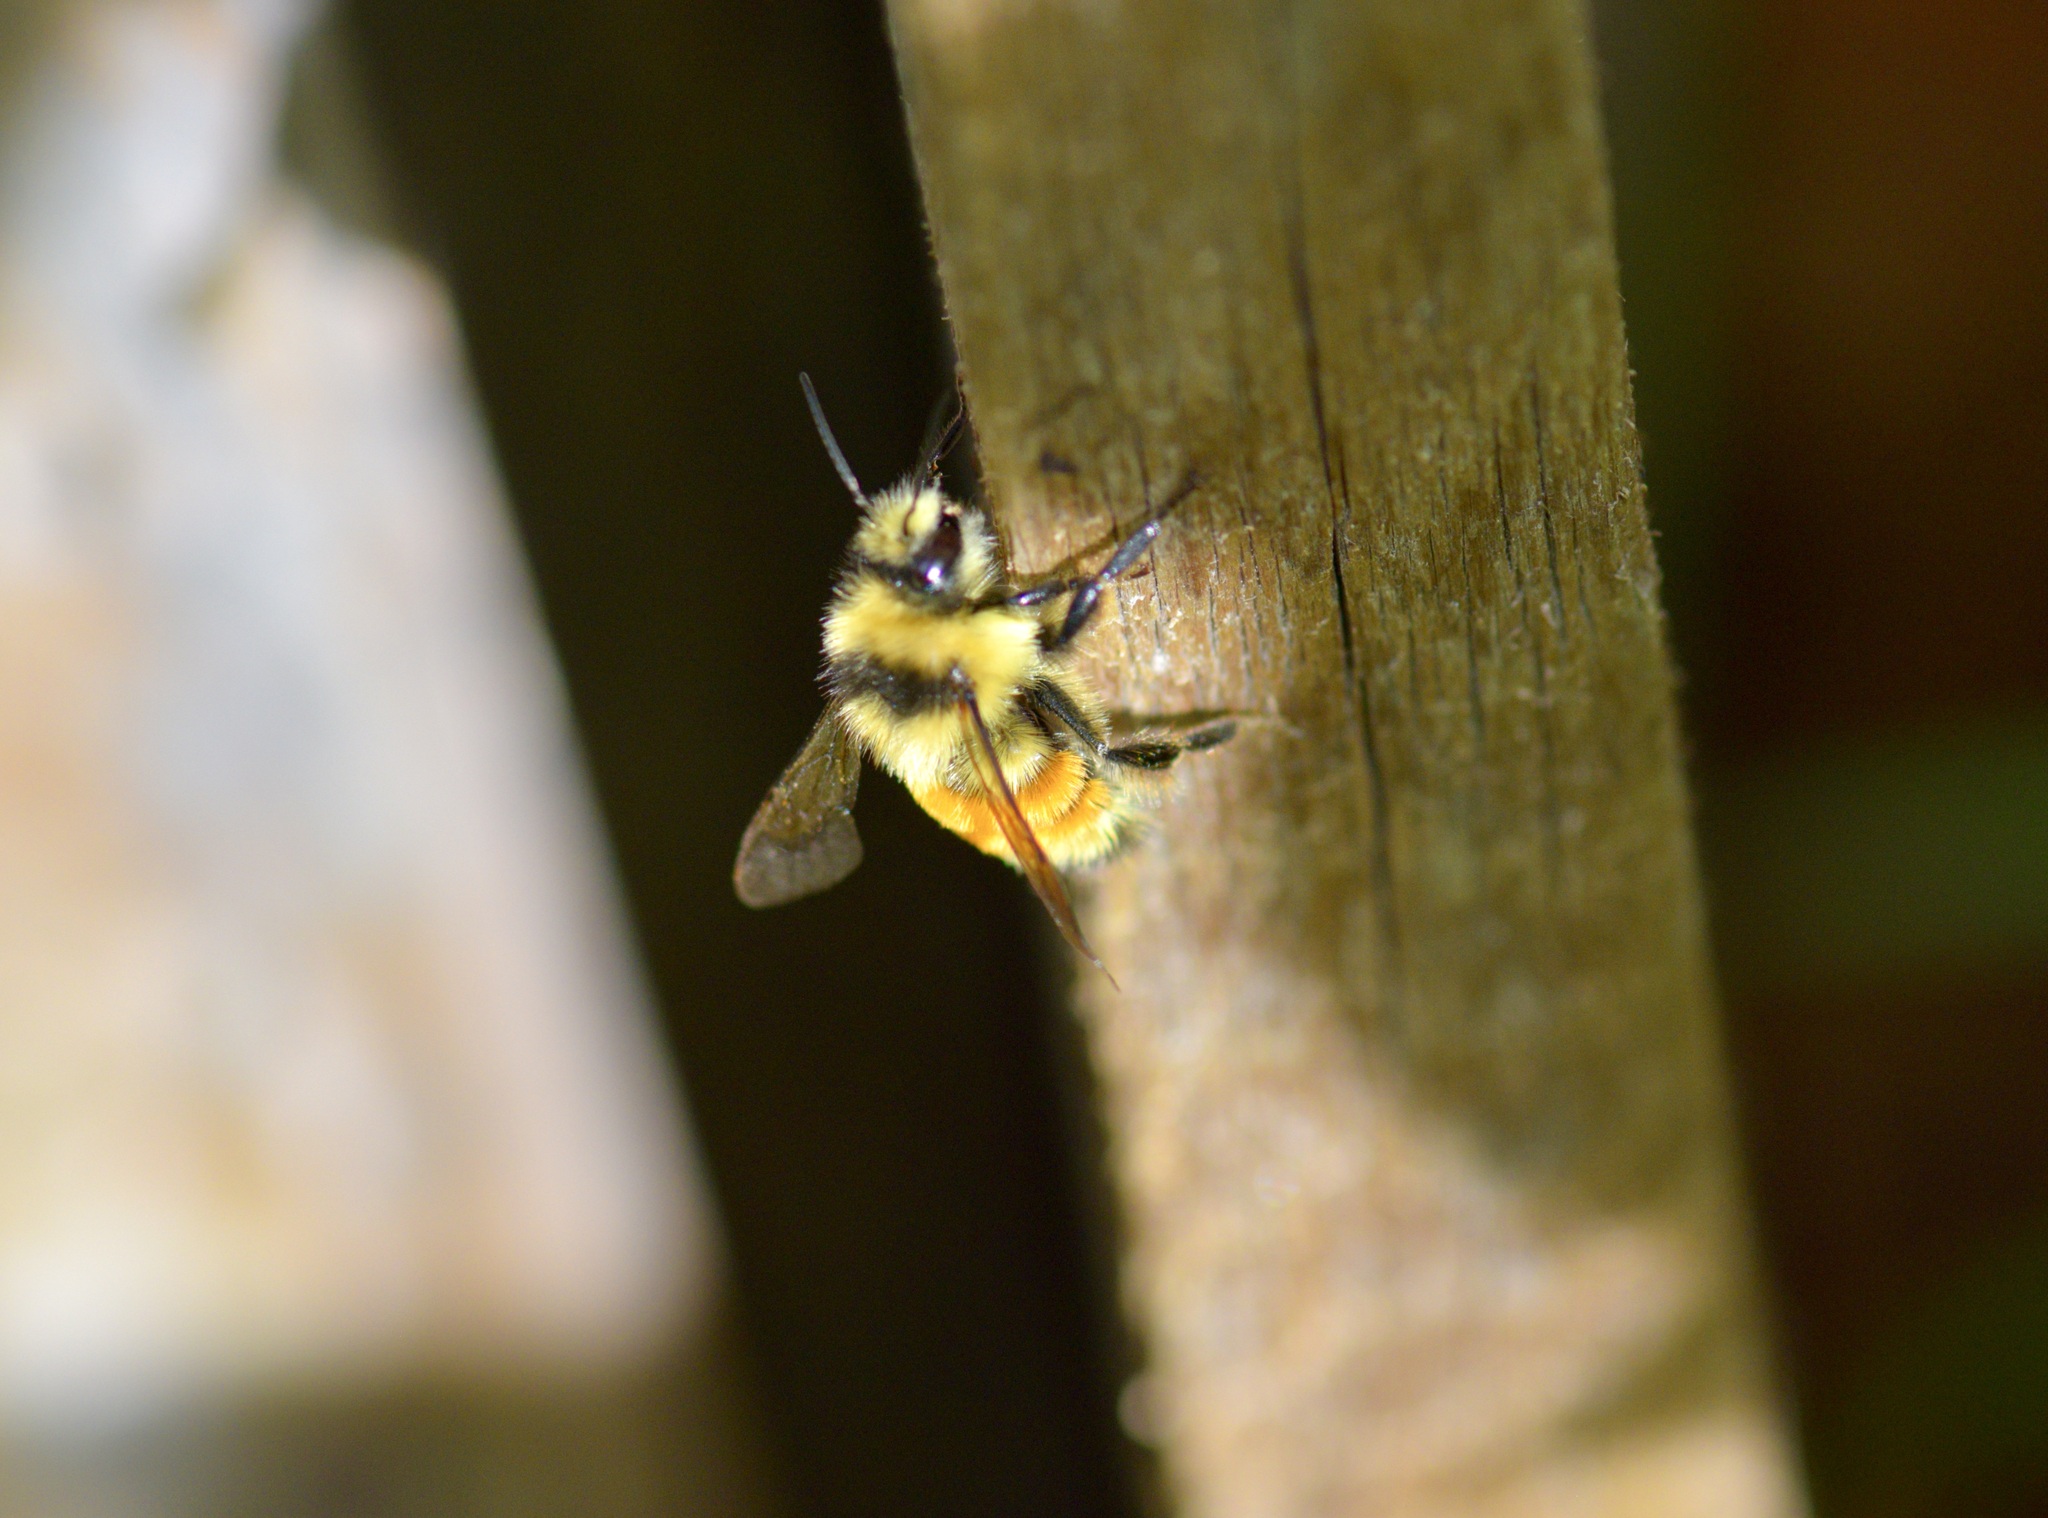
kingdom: Animalia
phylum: Arthropoda
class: Insecta
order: Hymenoptera
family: Apidae
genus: Bombus
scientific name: Bombus ternarius
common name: Tri-colored bumble bee
